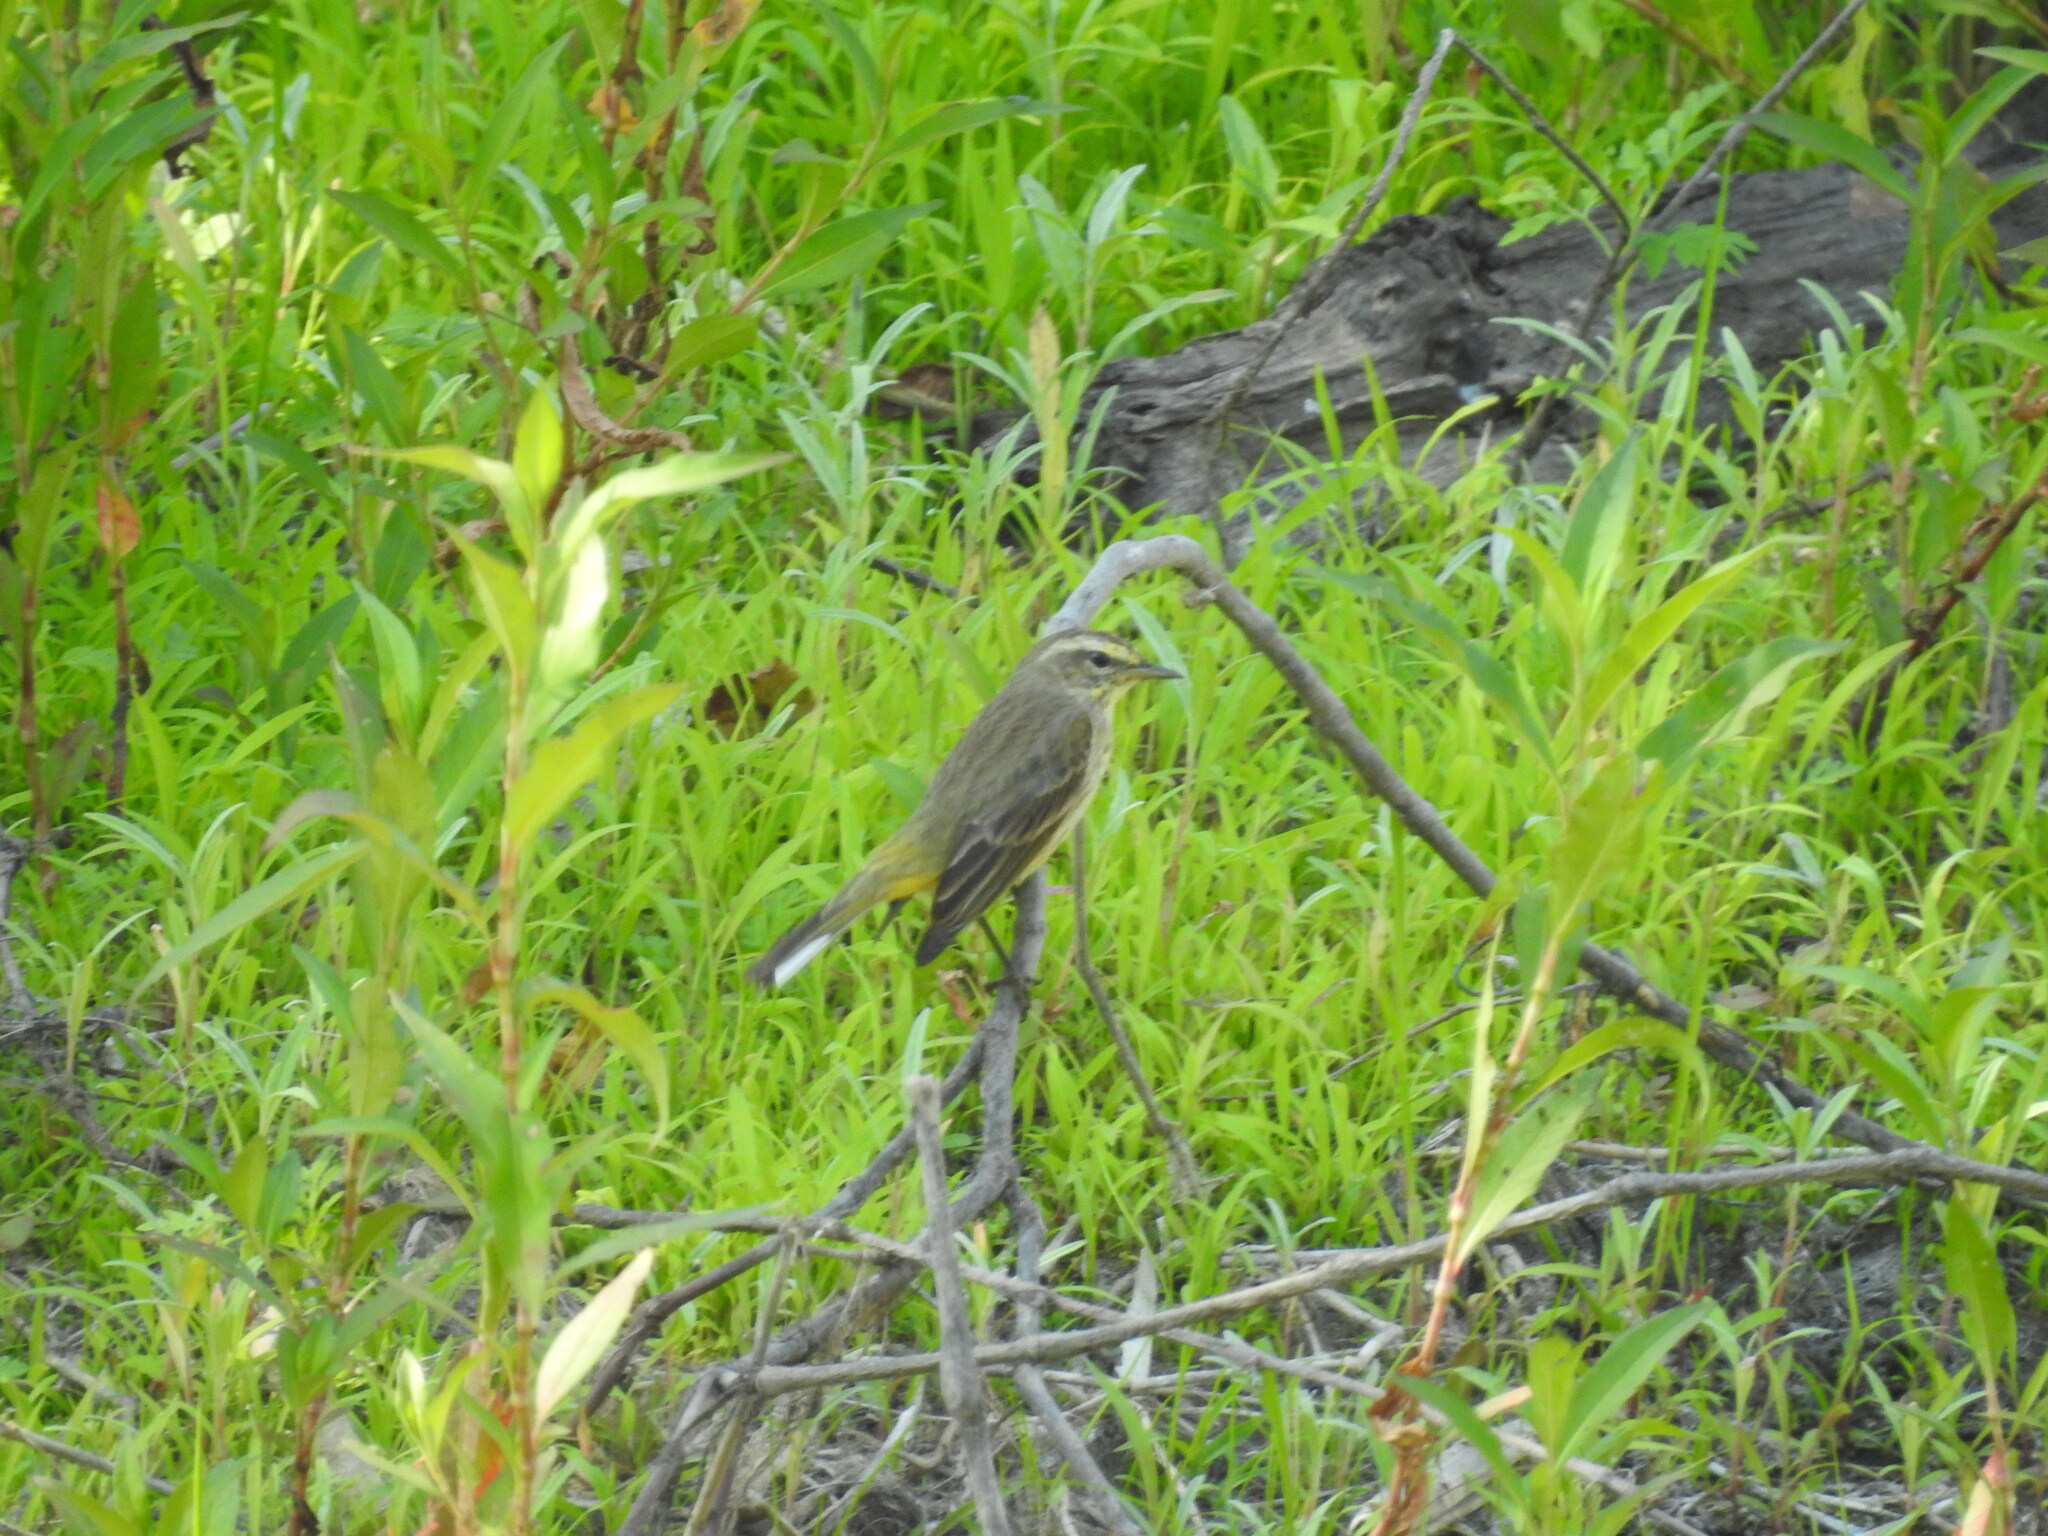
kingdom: Animalia
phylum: Chordata
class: Aves
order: Passeriformes
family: Parulidae
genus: Setophaga
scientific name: Setophaga palmarum
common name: Palm warbler
